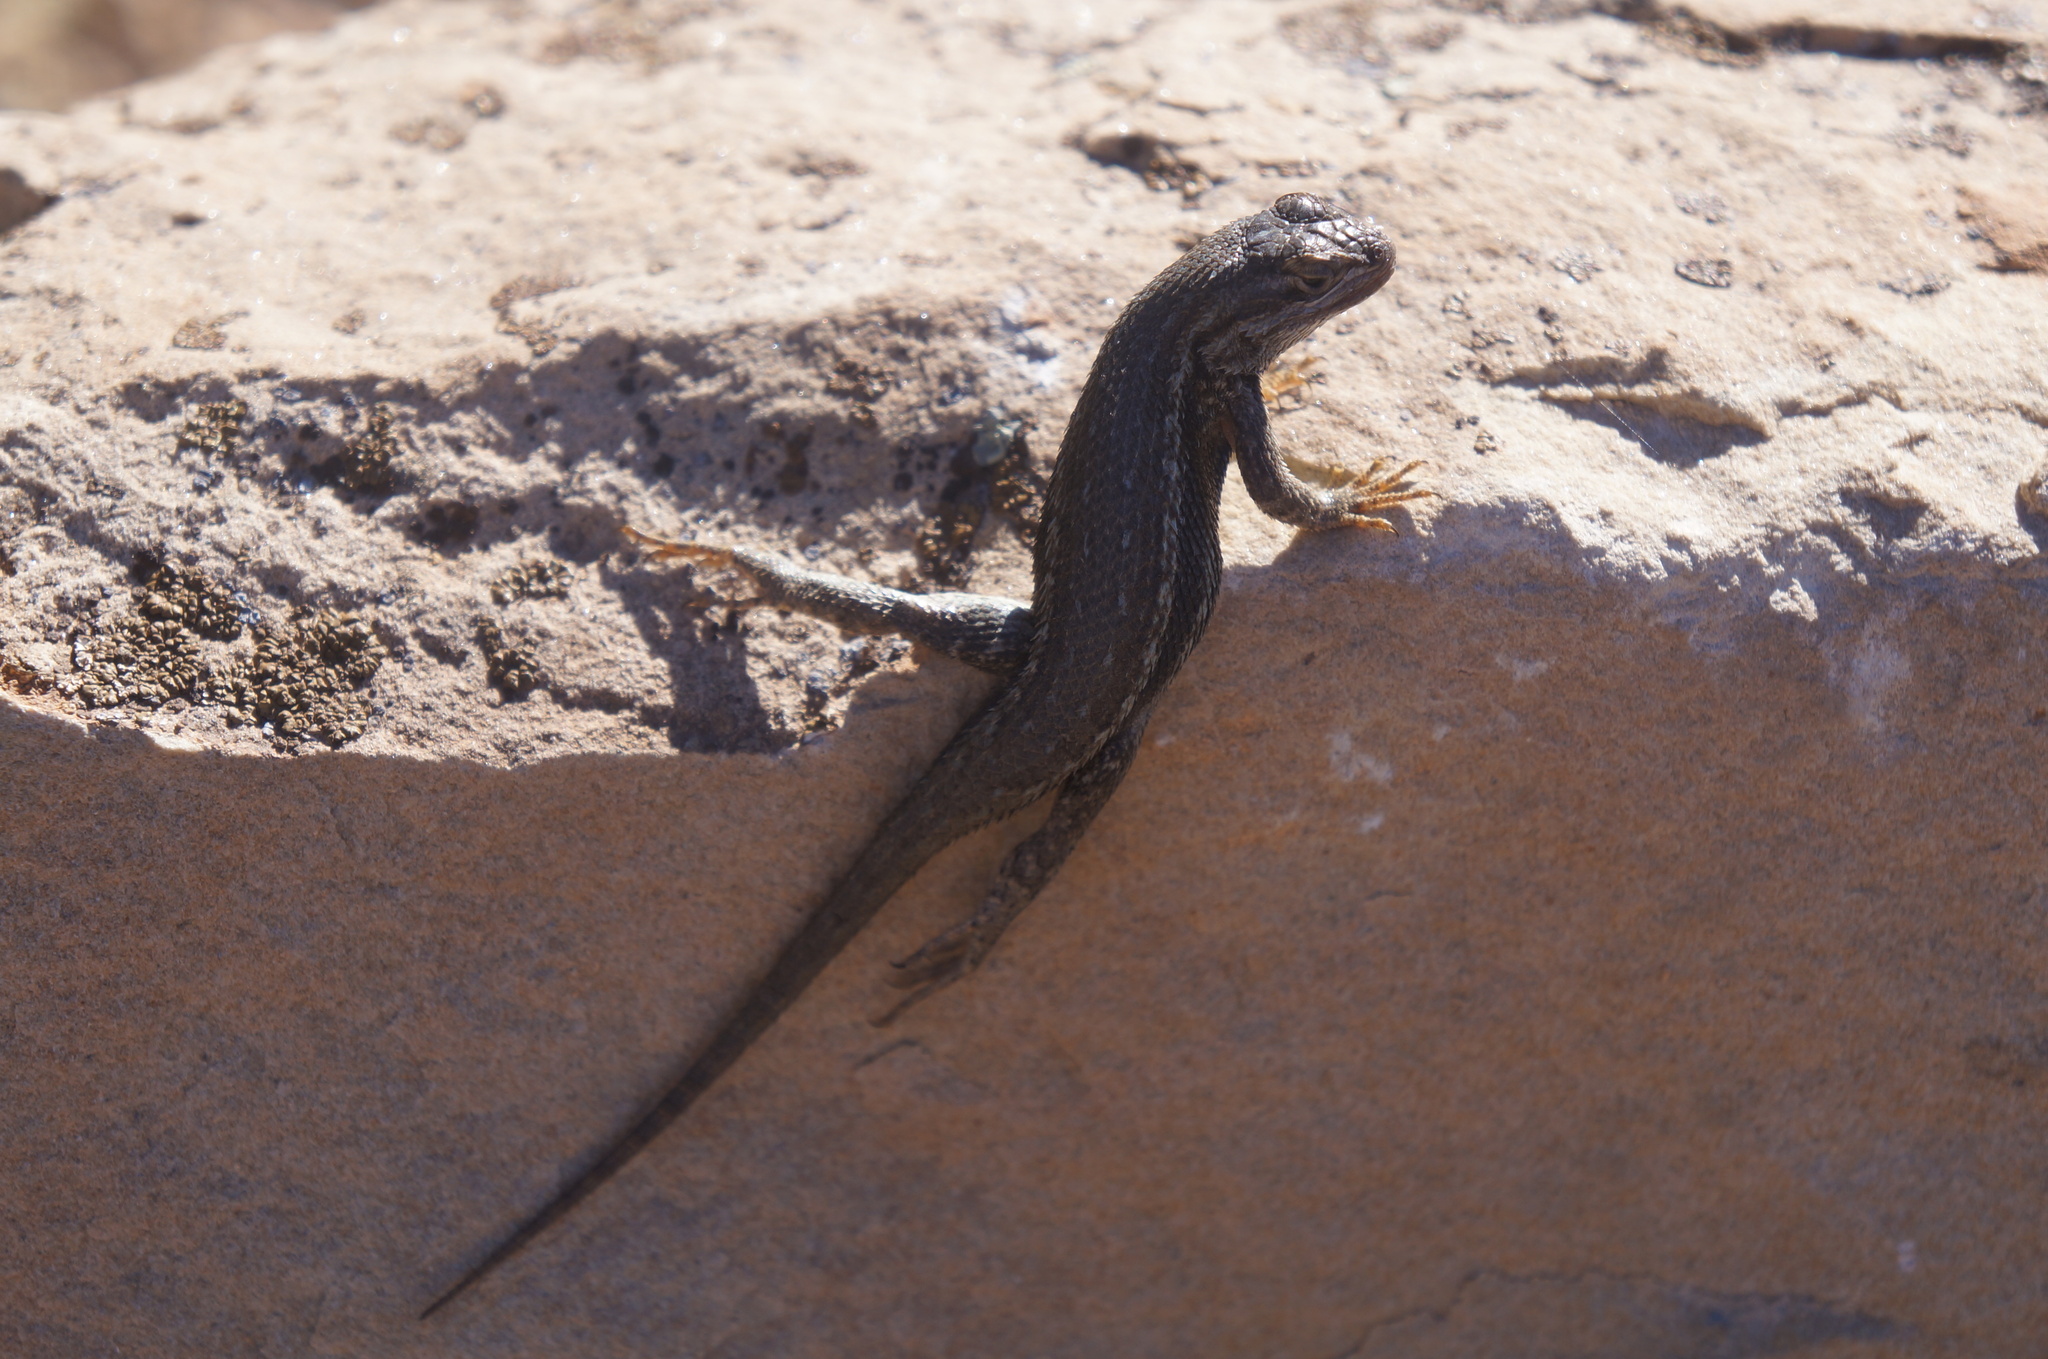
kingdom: Animalia
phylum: Chordata
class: Squamata
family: Phrynosomatidae
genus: Sceloporus
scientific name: Sceloporus tristichus
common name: Plateau fence lizard
